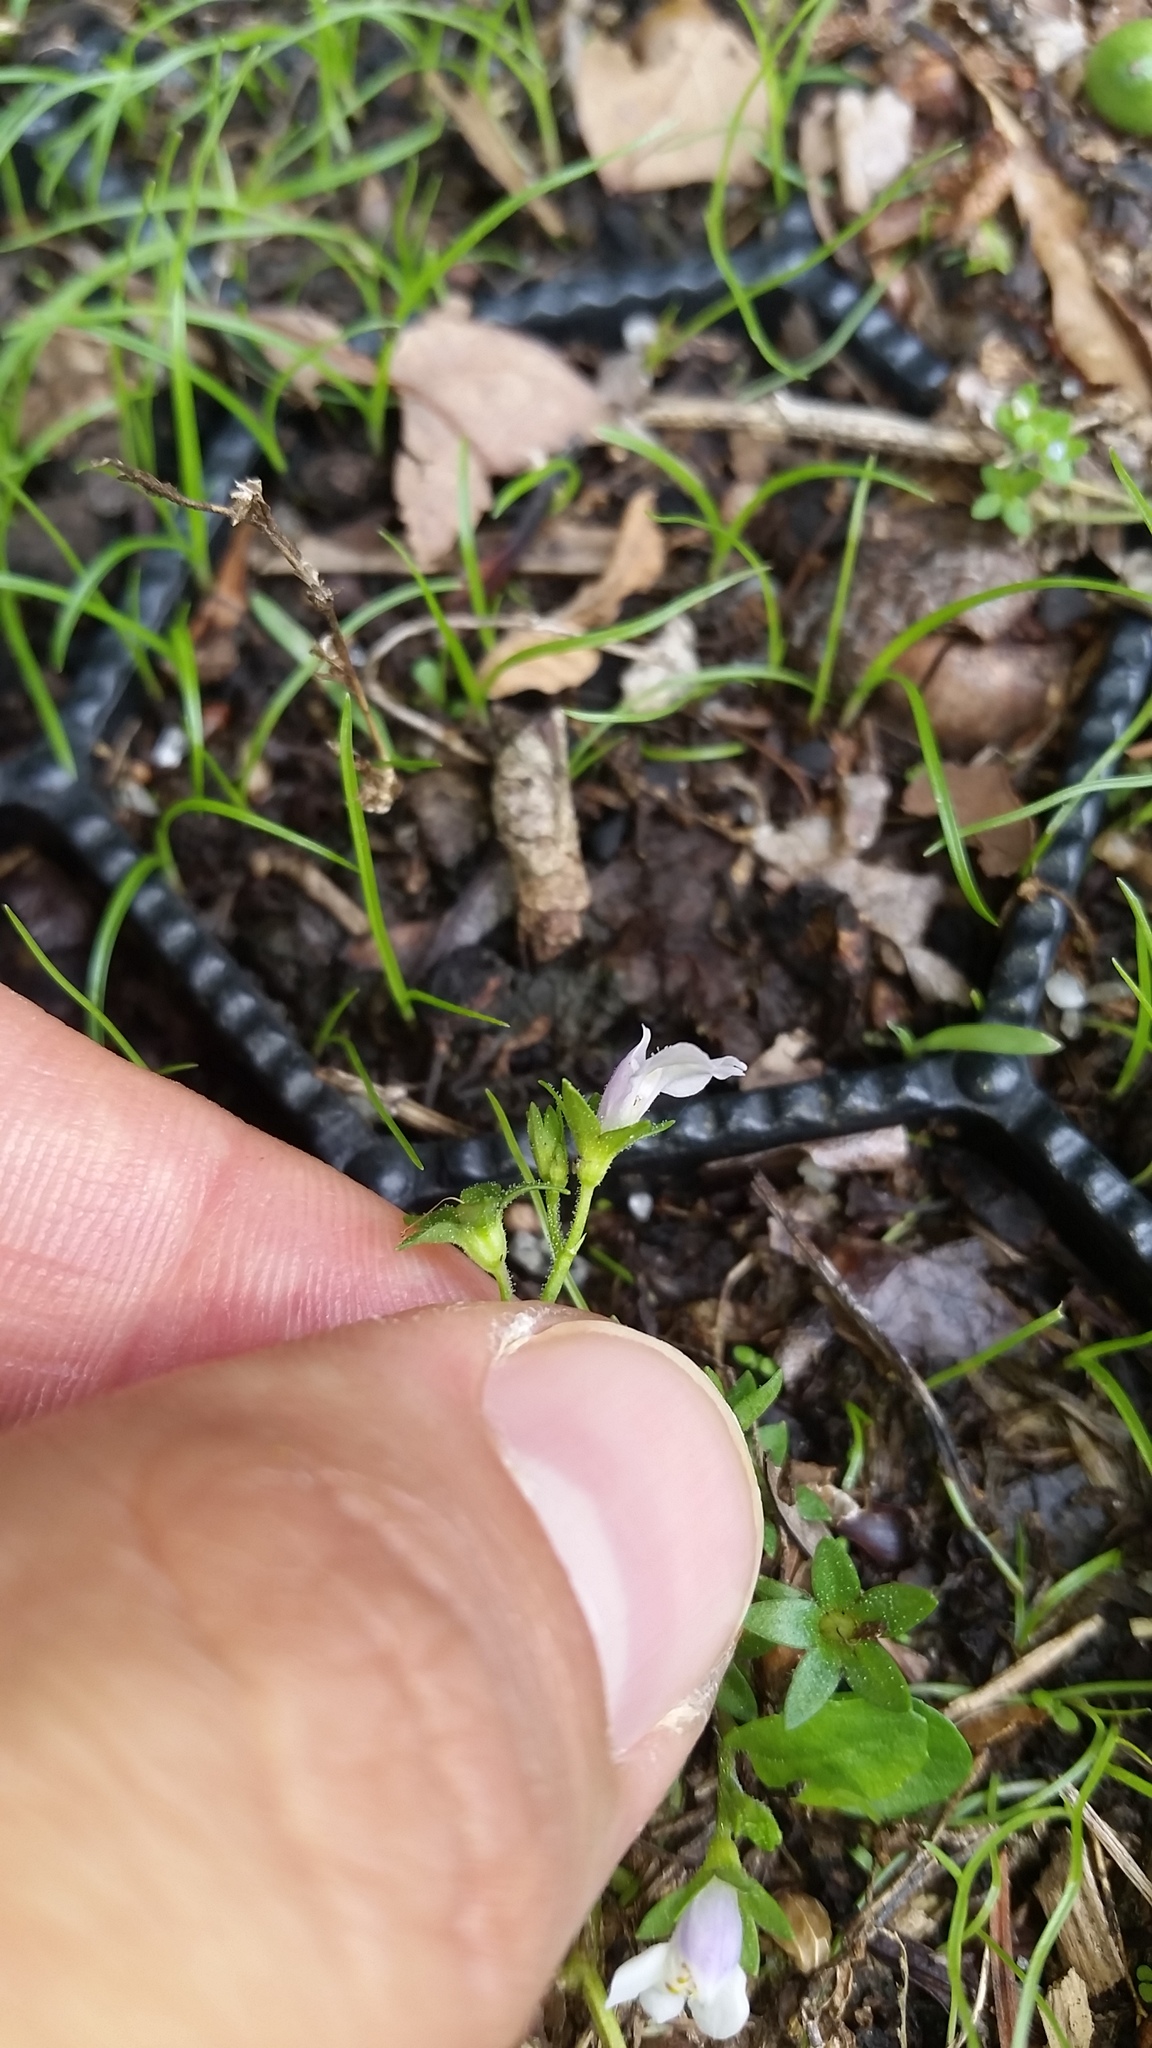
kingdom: Plantae
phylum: Tracheophyta
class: Magnoliopsida
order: Lamiales
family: Mazaceae
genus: Mazus
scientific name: Mazus pumilus
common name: Japanese mazus
